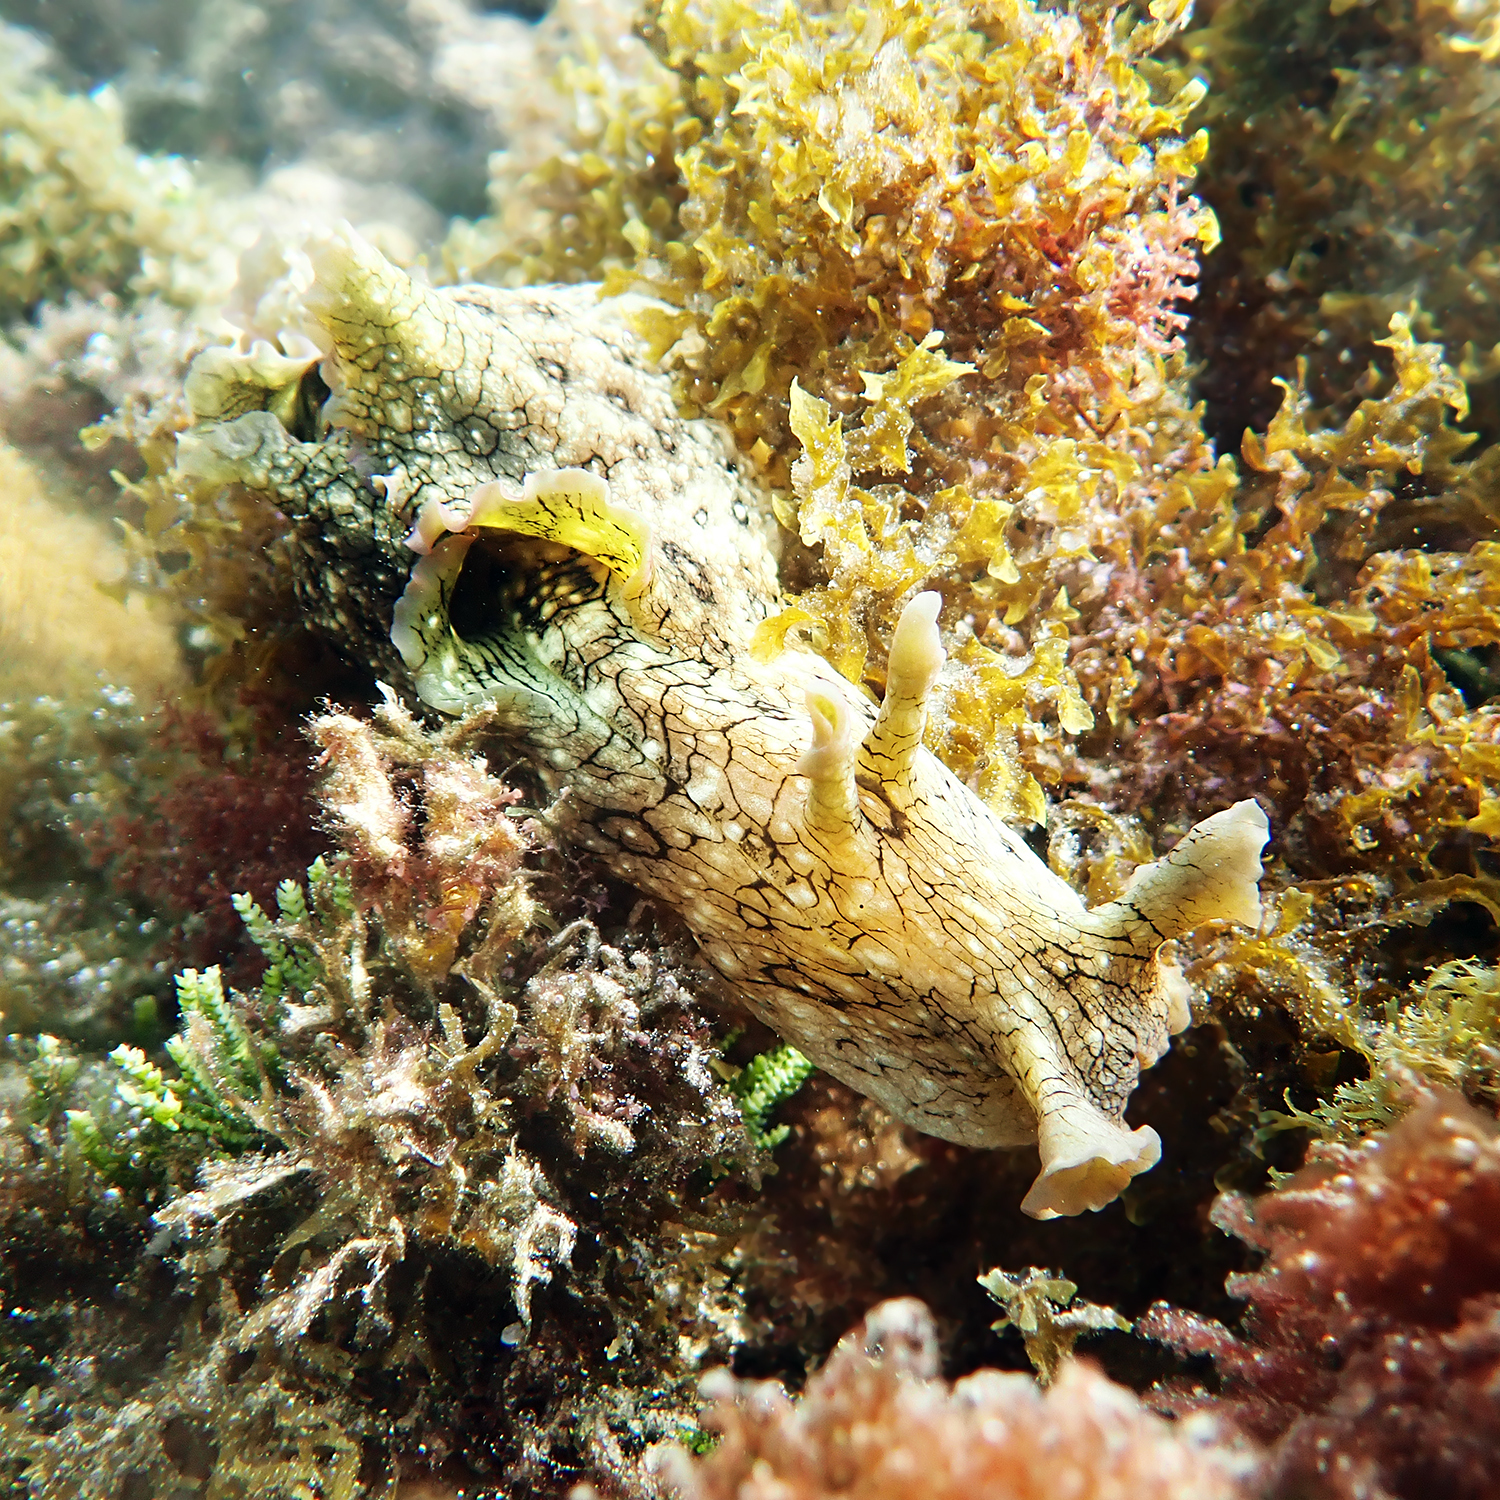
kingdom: Animalia
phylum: Mollusca
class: Gastropoda
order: Aplysiida
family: Aplysiidae
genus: Aplysia
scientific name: Aplysia argus
